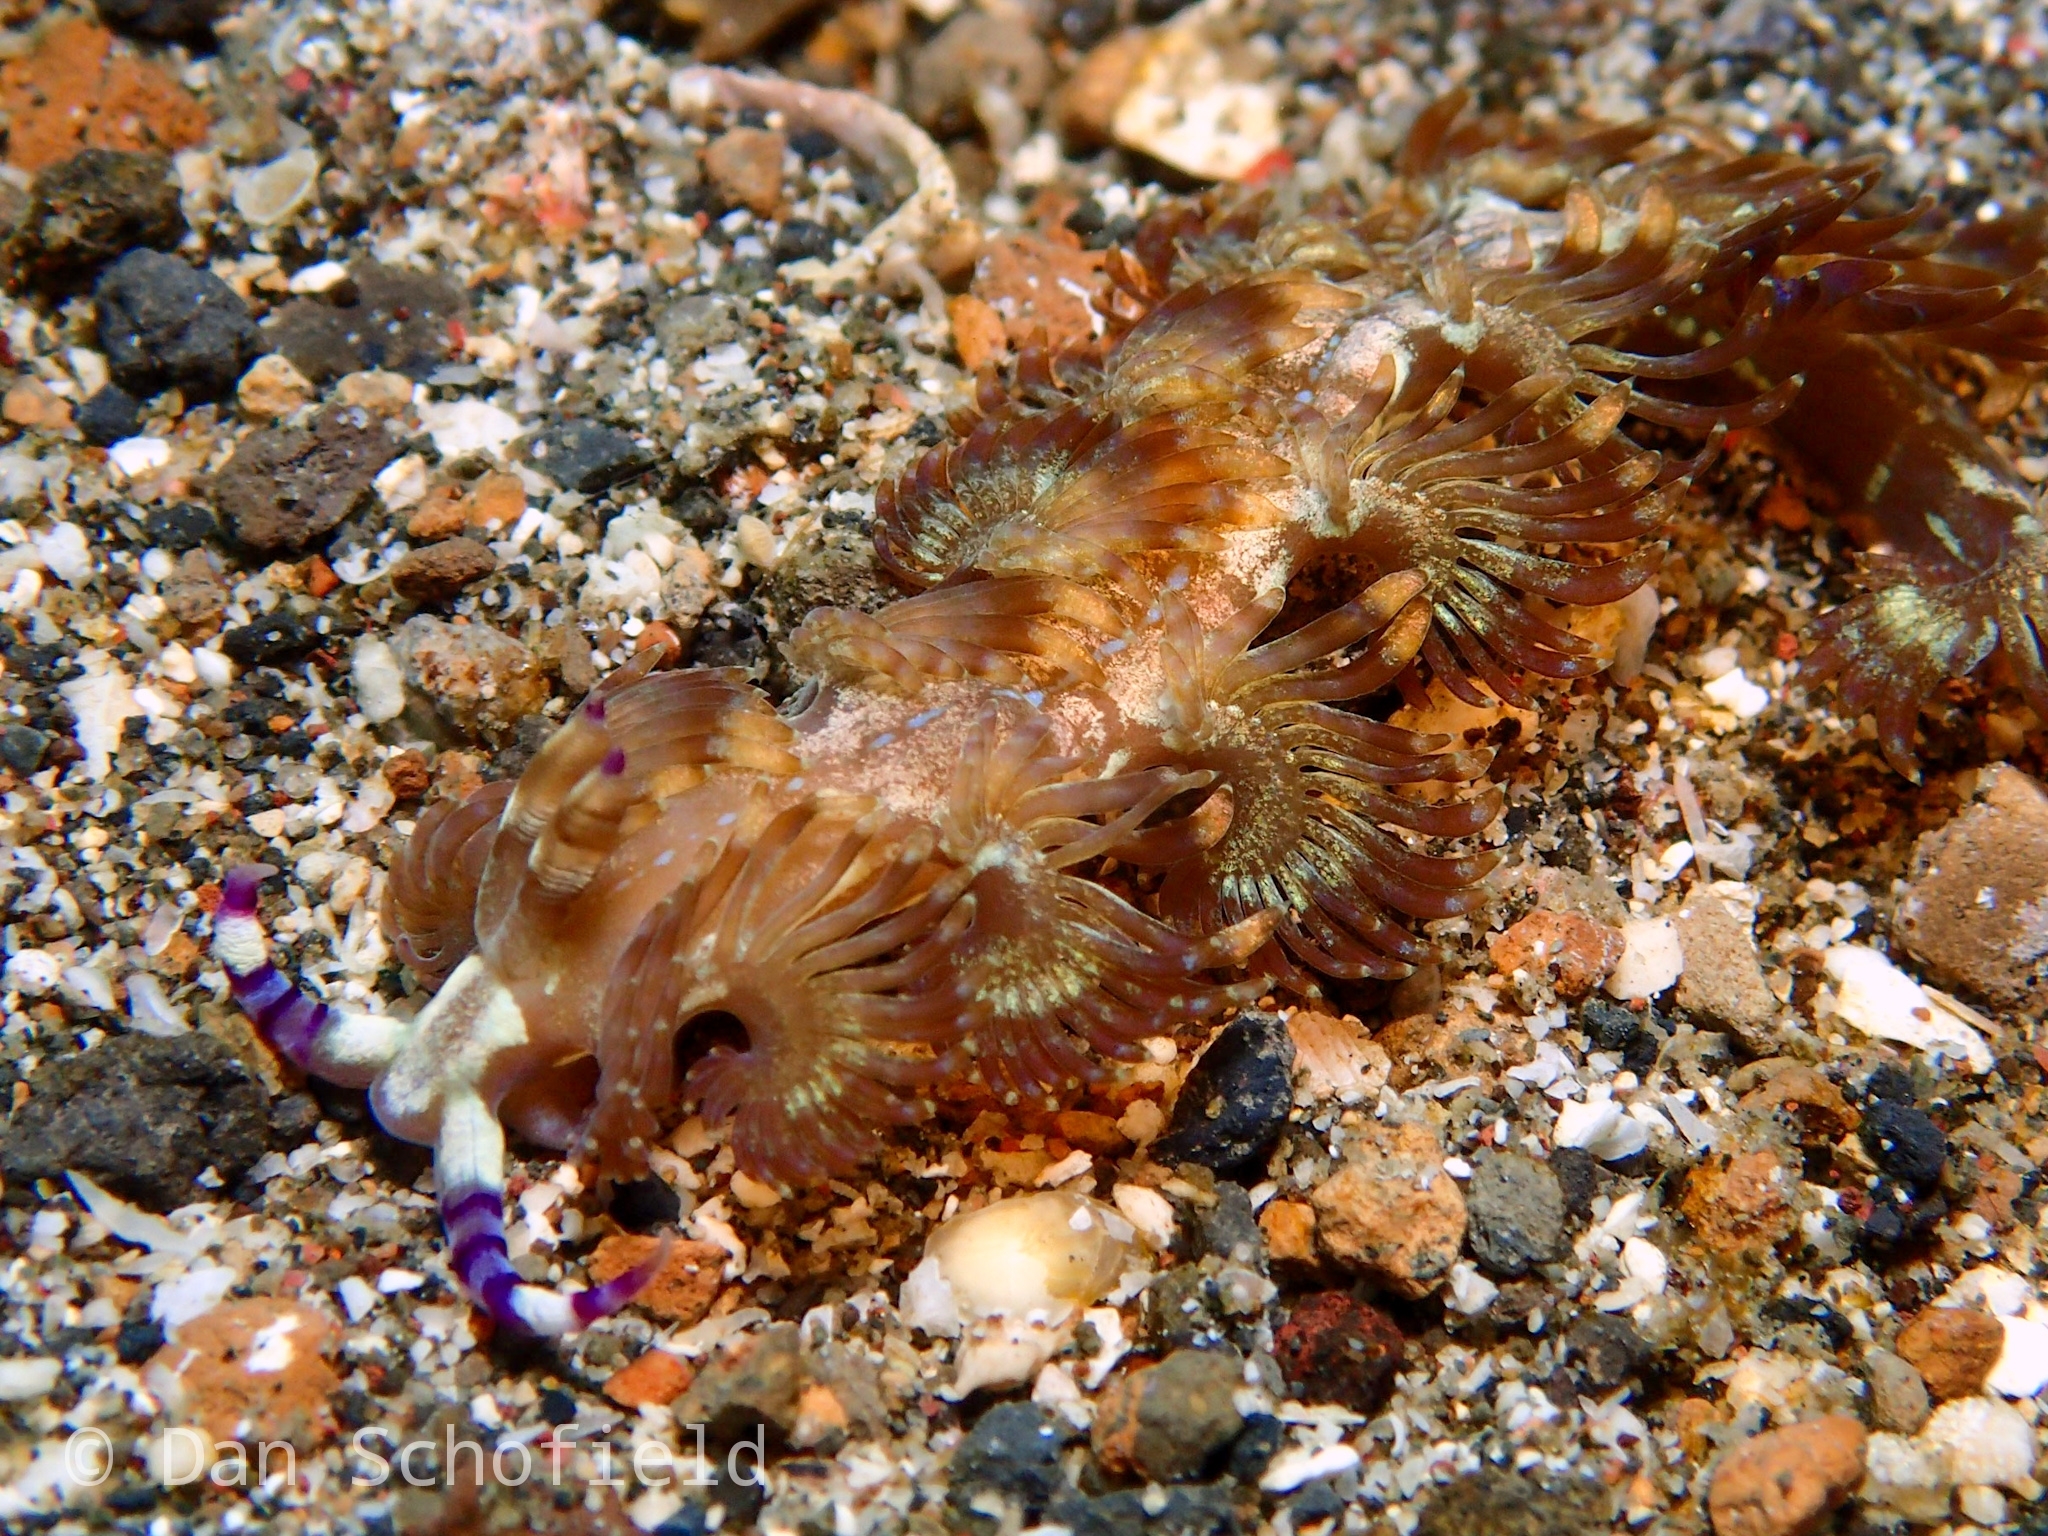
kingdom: Animalia
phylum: Mollusca
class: Gastropoda
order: Nudibranchia
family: Facelinidae
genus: Pteraeolidia
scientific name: Pteraeolidia semperi
